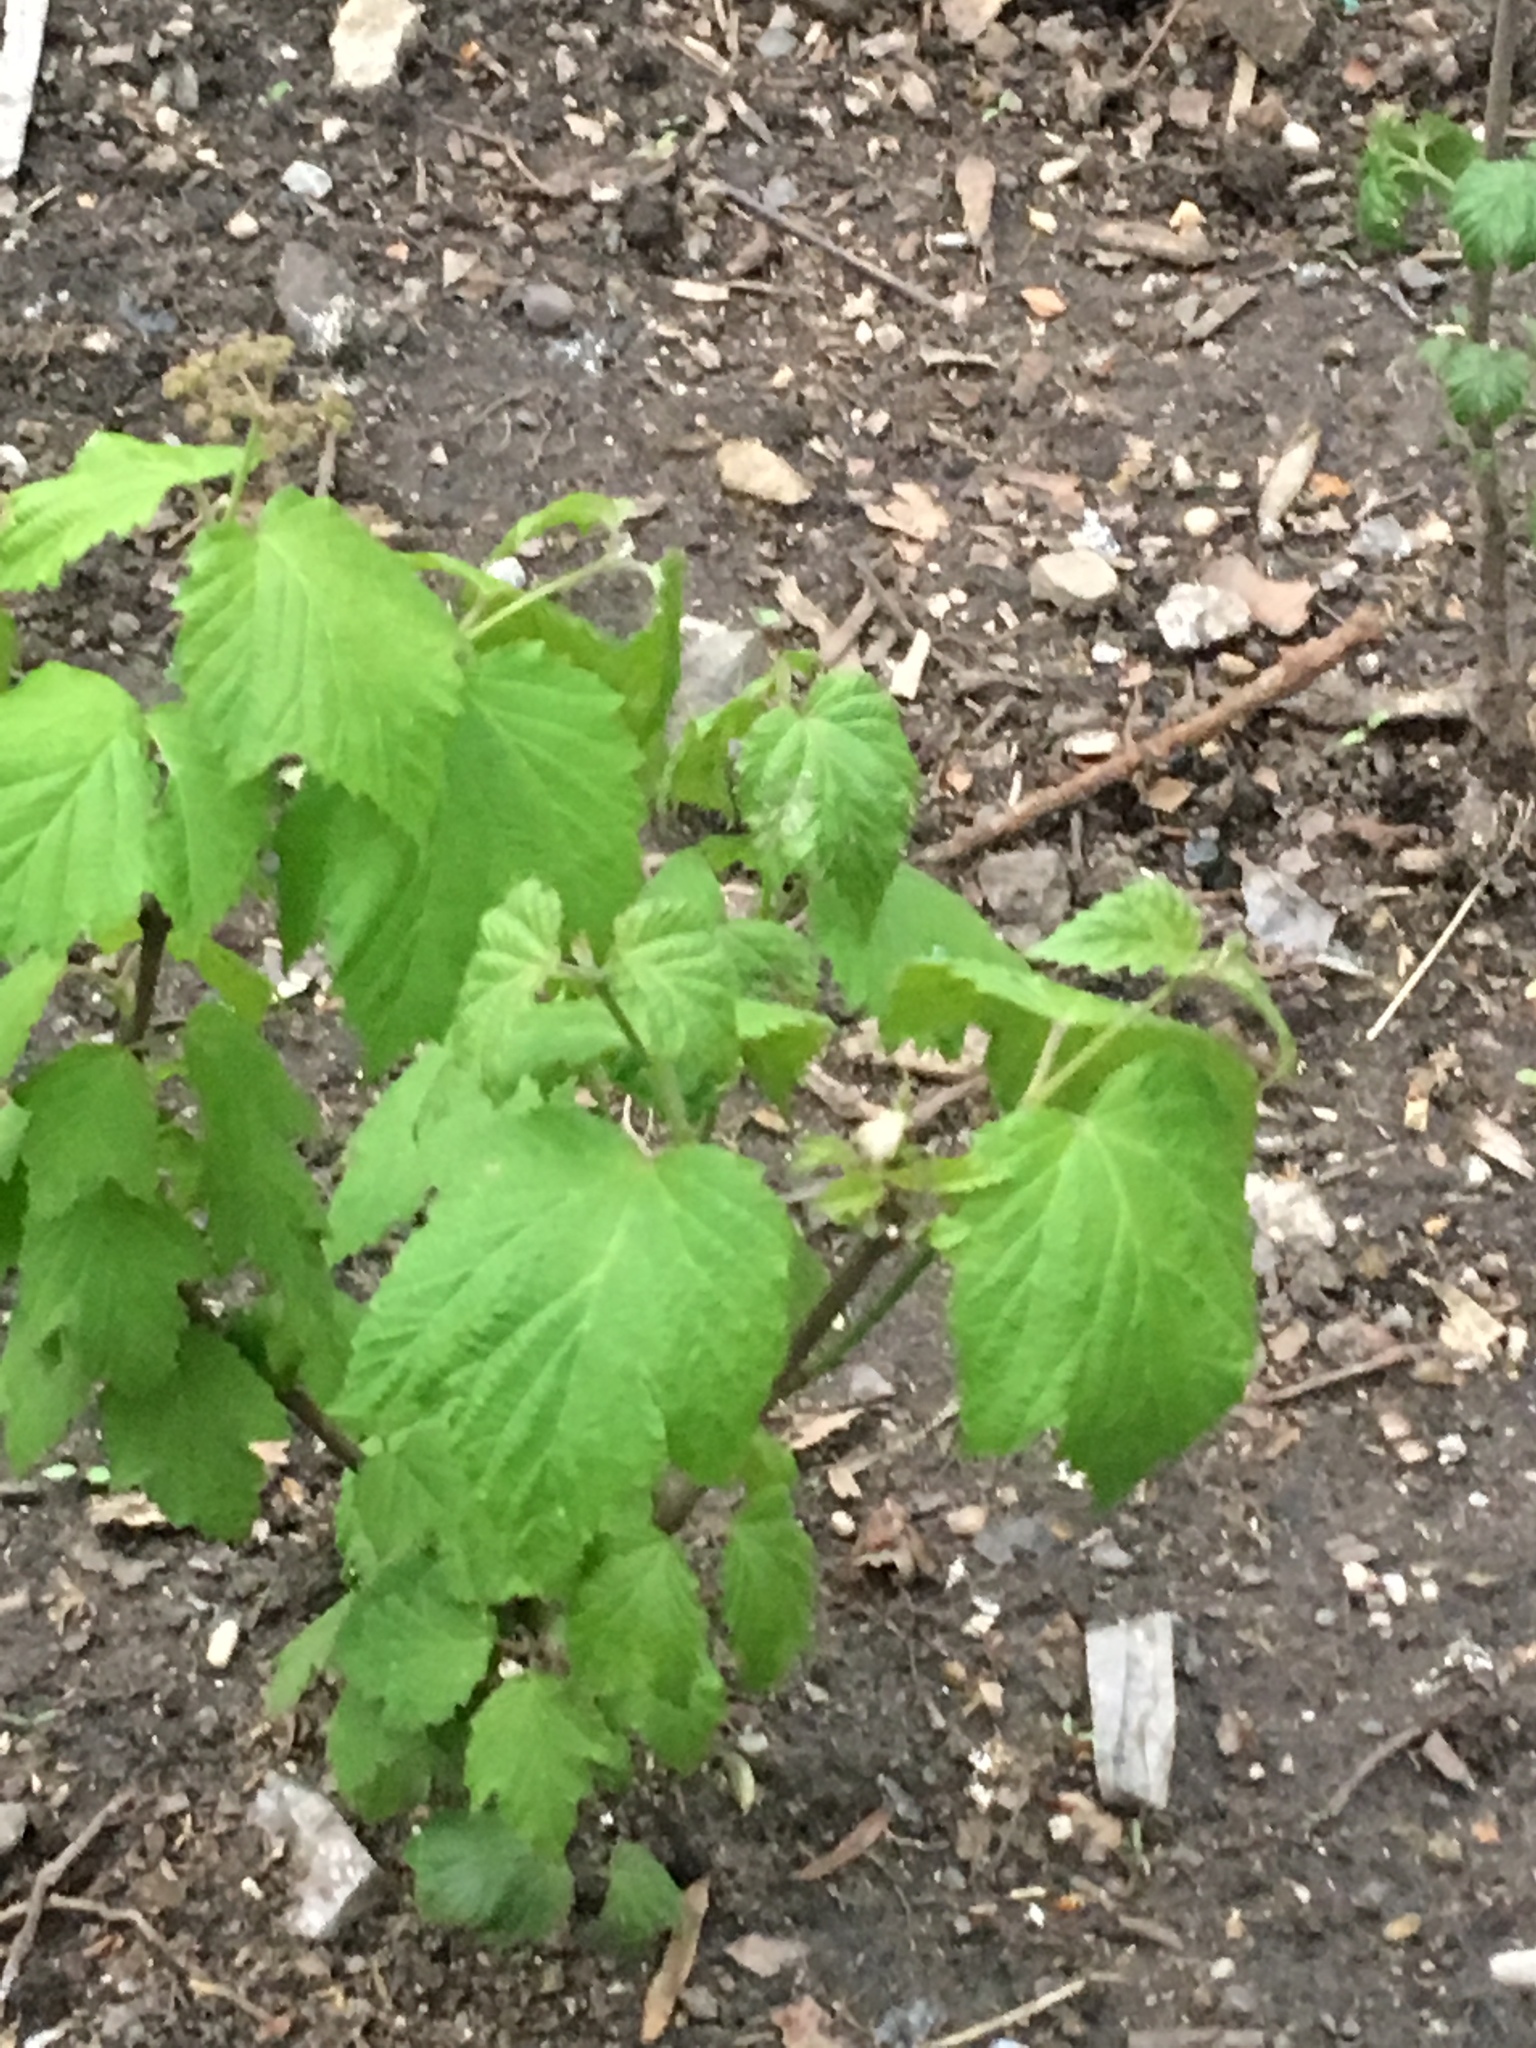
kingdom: Plantae
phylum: Tracheophyta
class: Magnoliopsida
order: Dipsacales
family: Viburnaceae
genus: Viburnum
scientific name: Viburnum acerifolium
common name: Dockmackie
